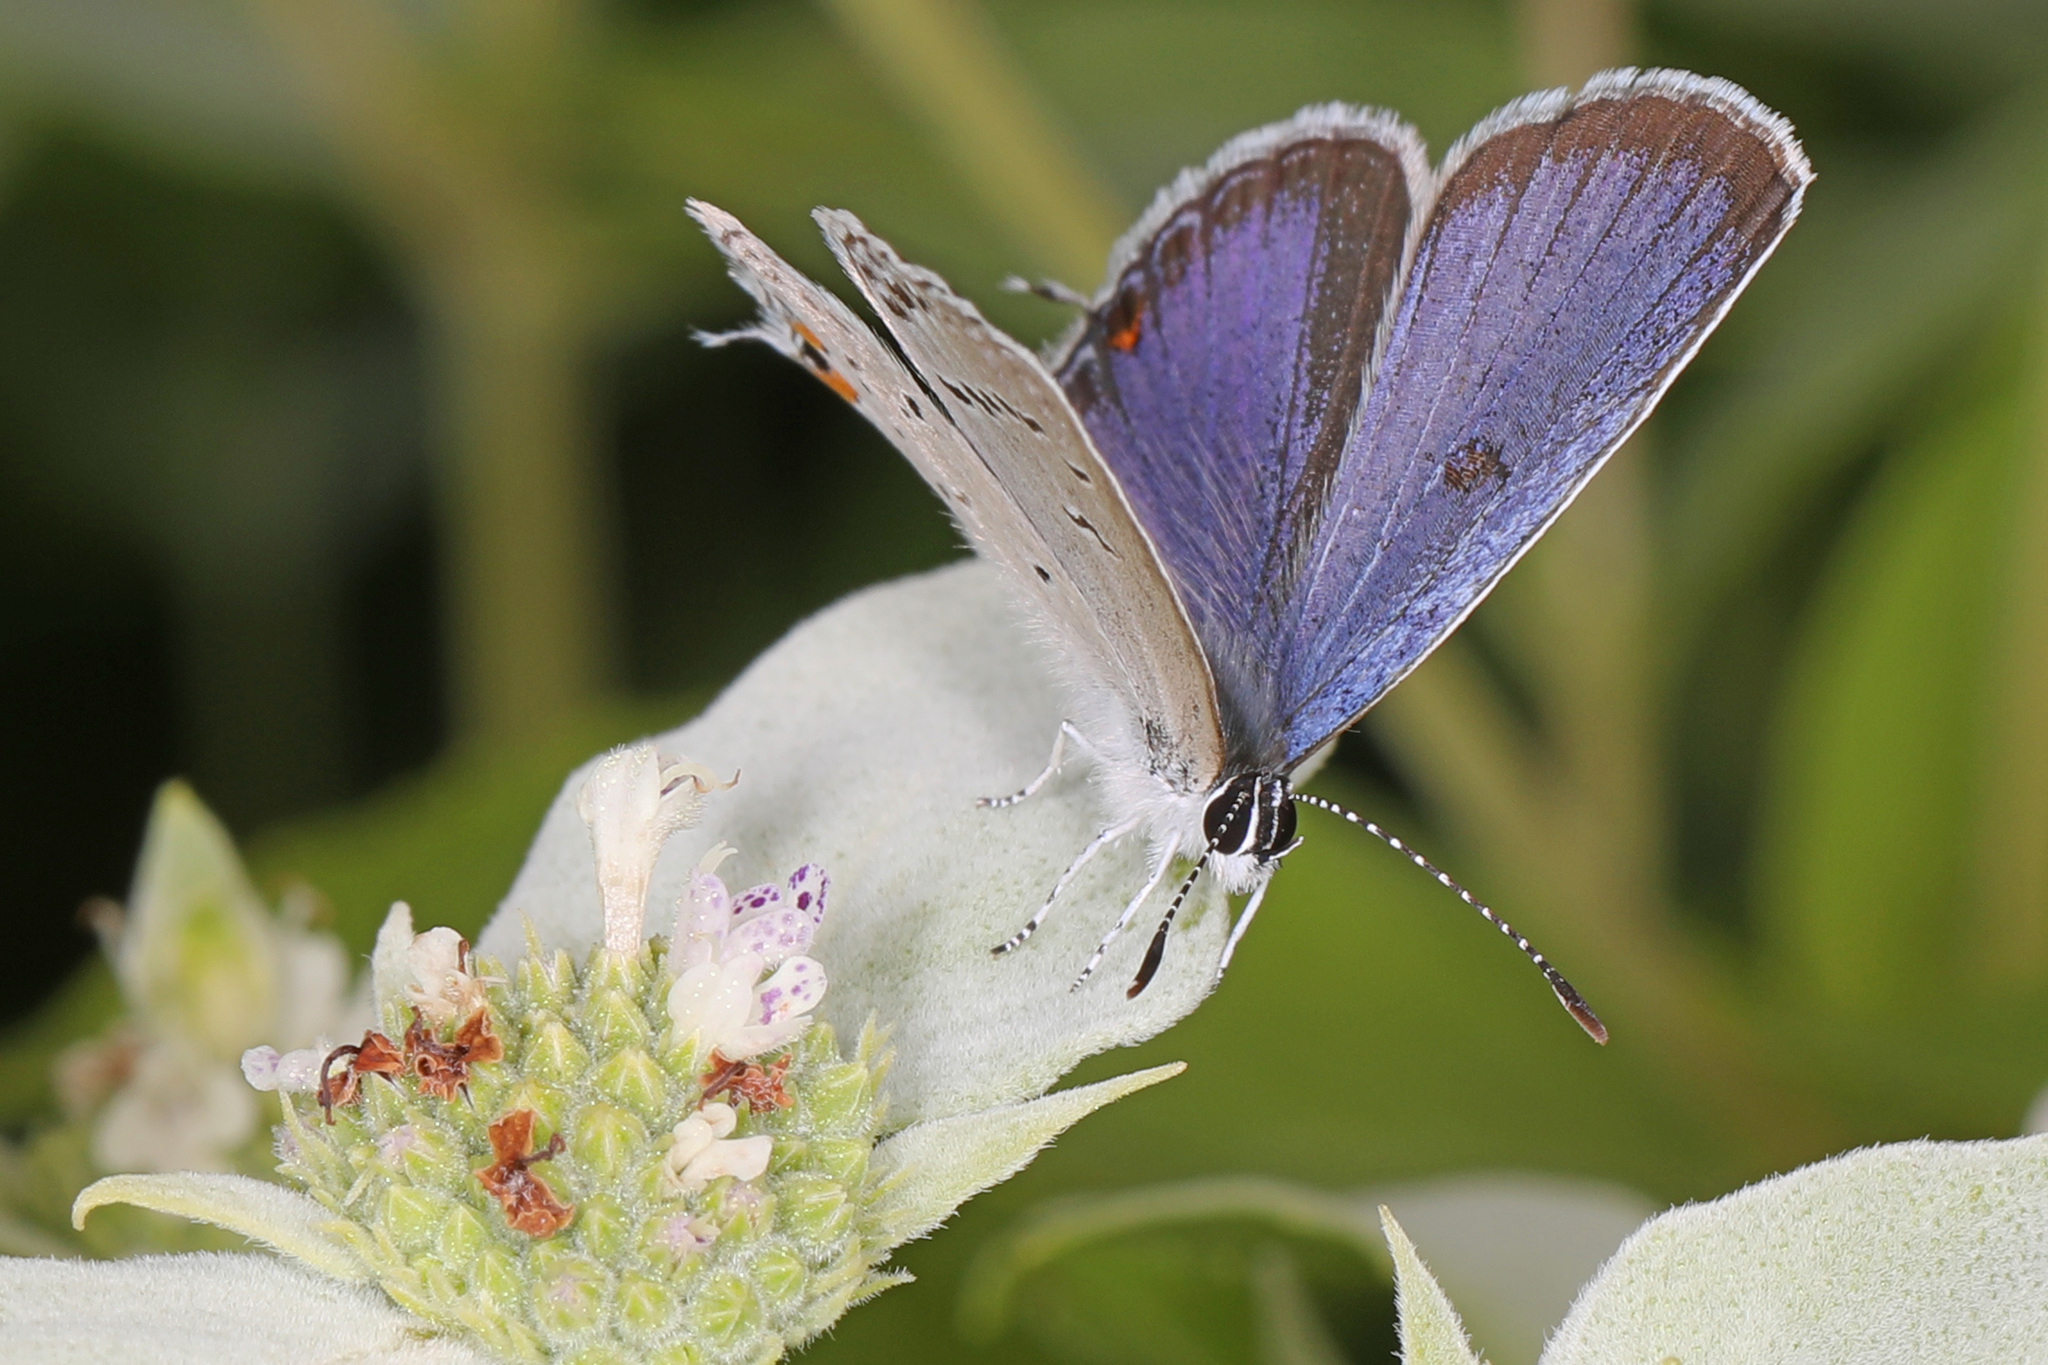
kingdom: Animalia
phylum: Arthropoda
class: Insecta
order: Lepidoptera
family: Lycaenidae
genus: Elkalyce
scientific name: Elkalyce comyntas
